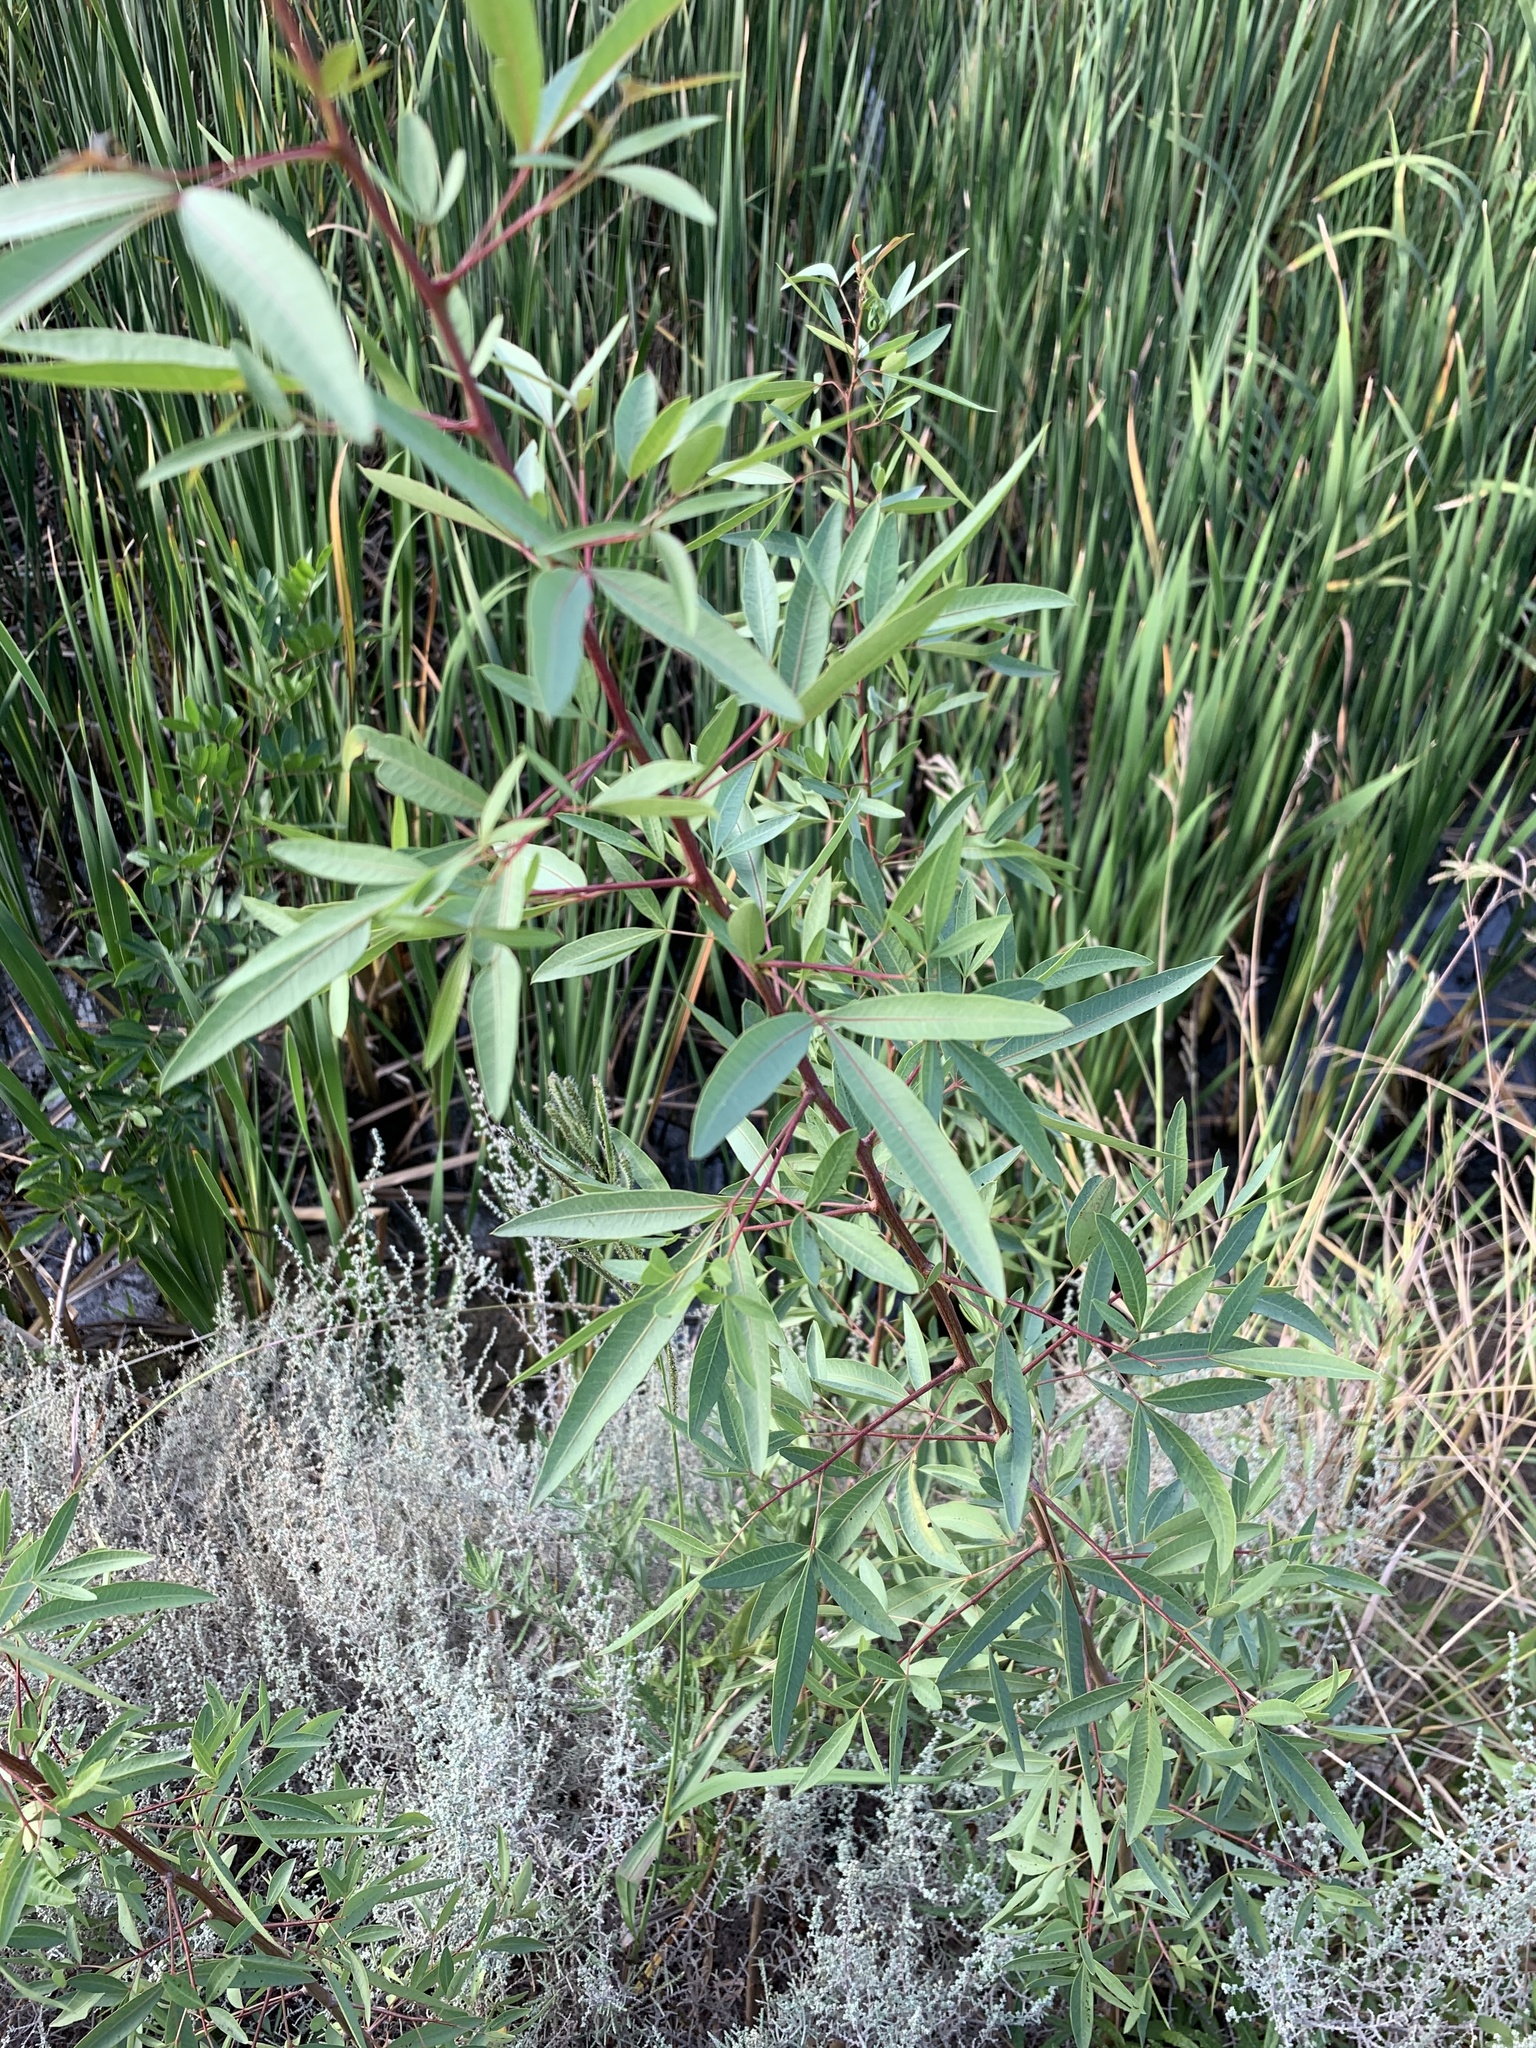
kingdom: Plantae
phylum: Tracheophyta
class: Magnoliopsida
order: Sapindales
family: Anacardiaceae
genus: Searsia
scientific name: Searsia pendulina
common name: White karee
